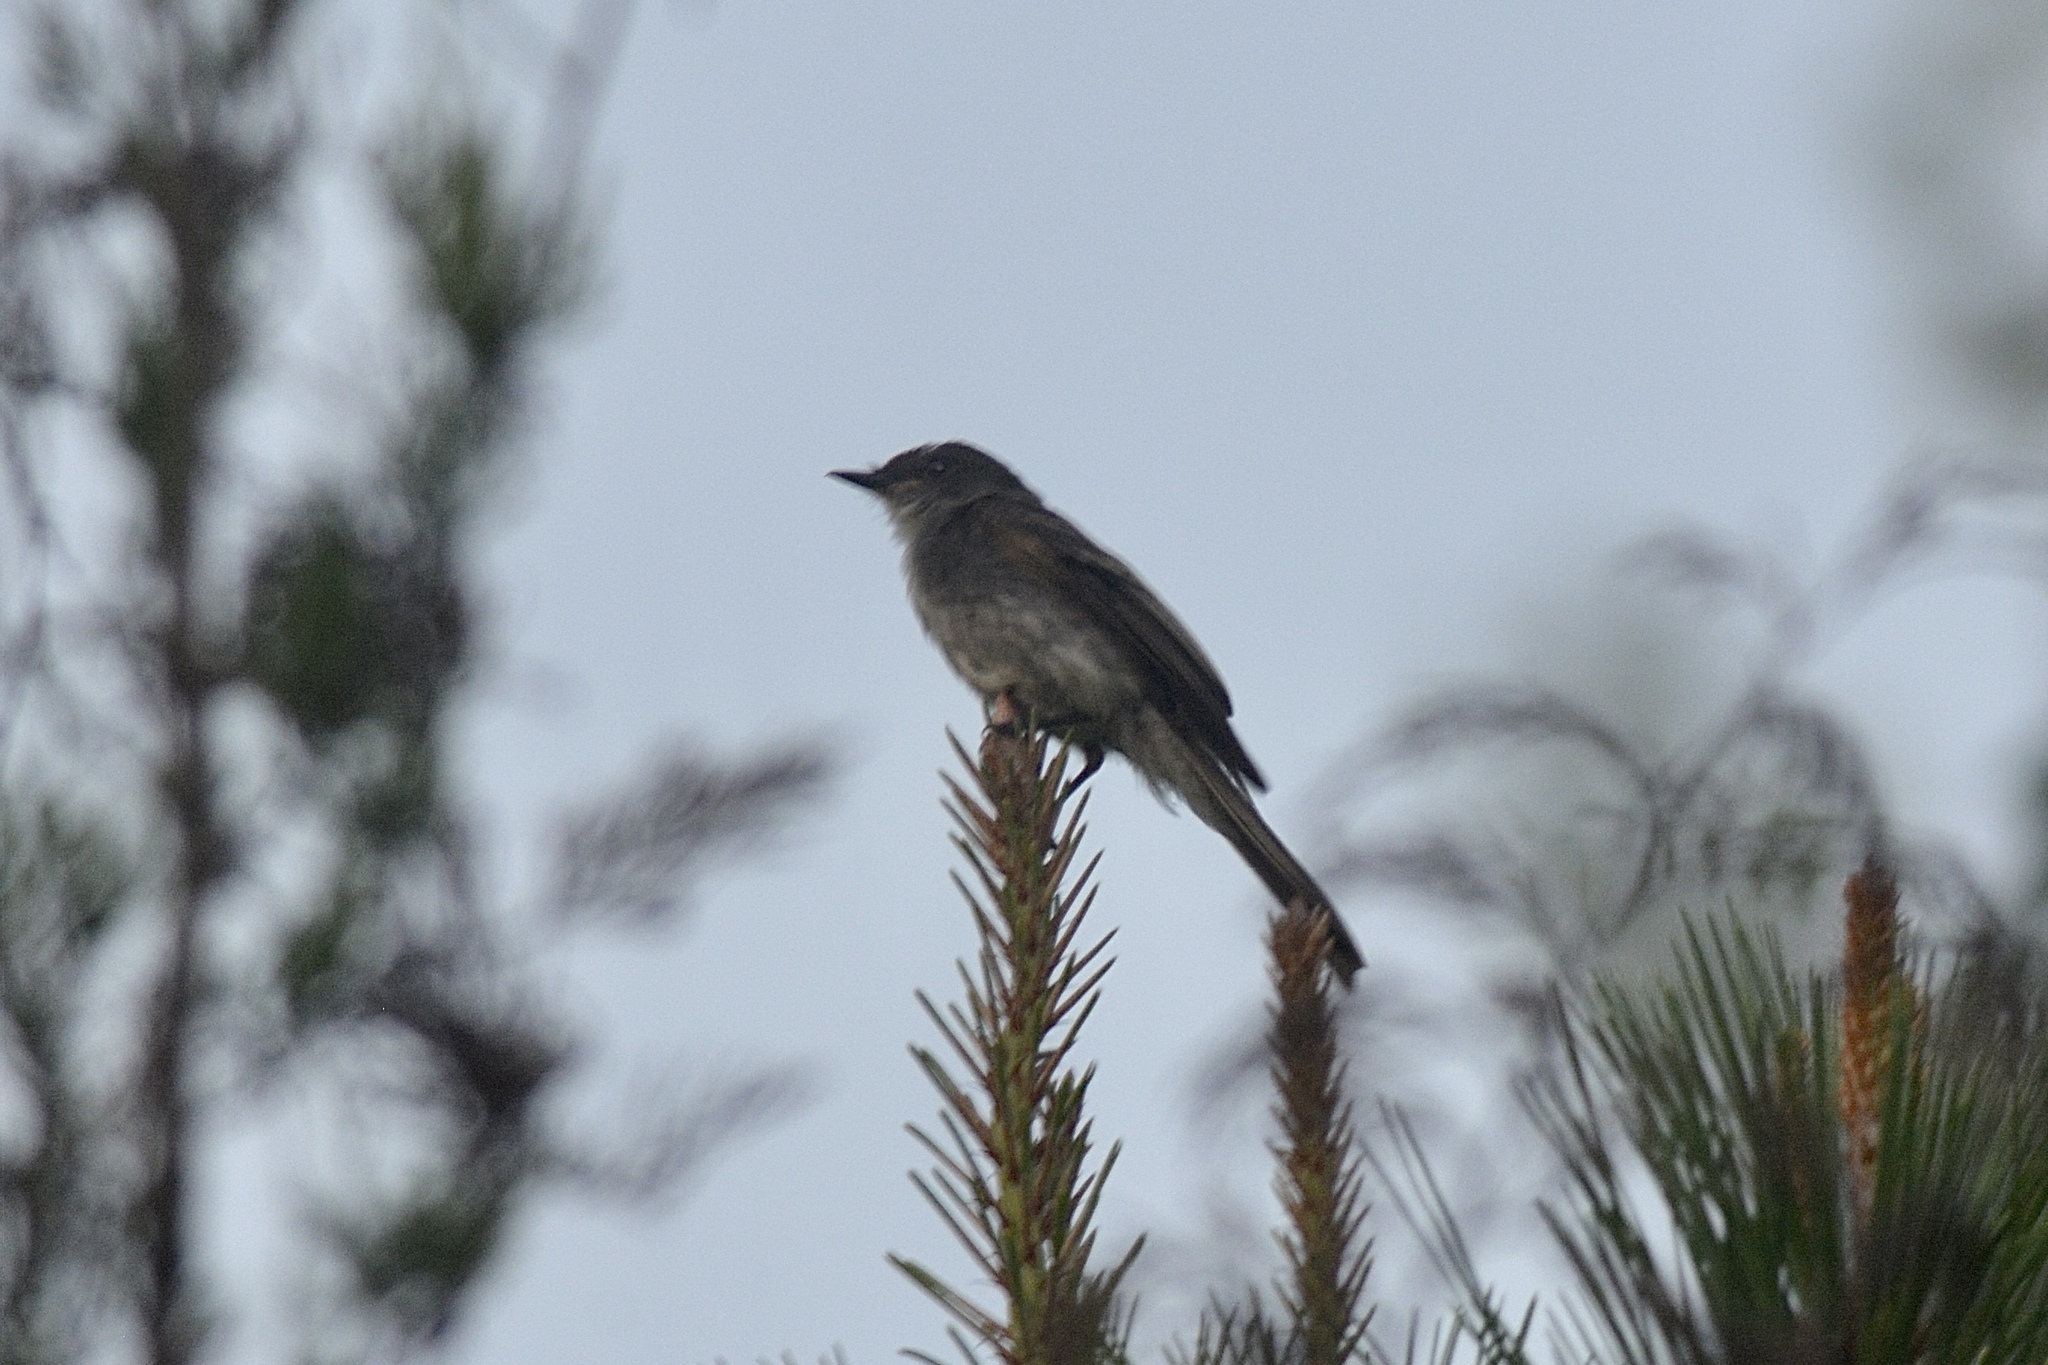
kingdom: Animalia
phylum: Chordata
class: Aves
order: Passeriformes
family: Tyrannidae
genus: Sayornis
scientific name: Sayornis phoebe
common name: Eastern phoebe
